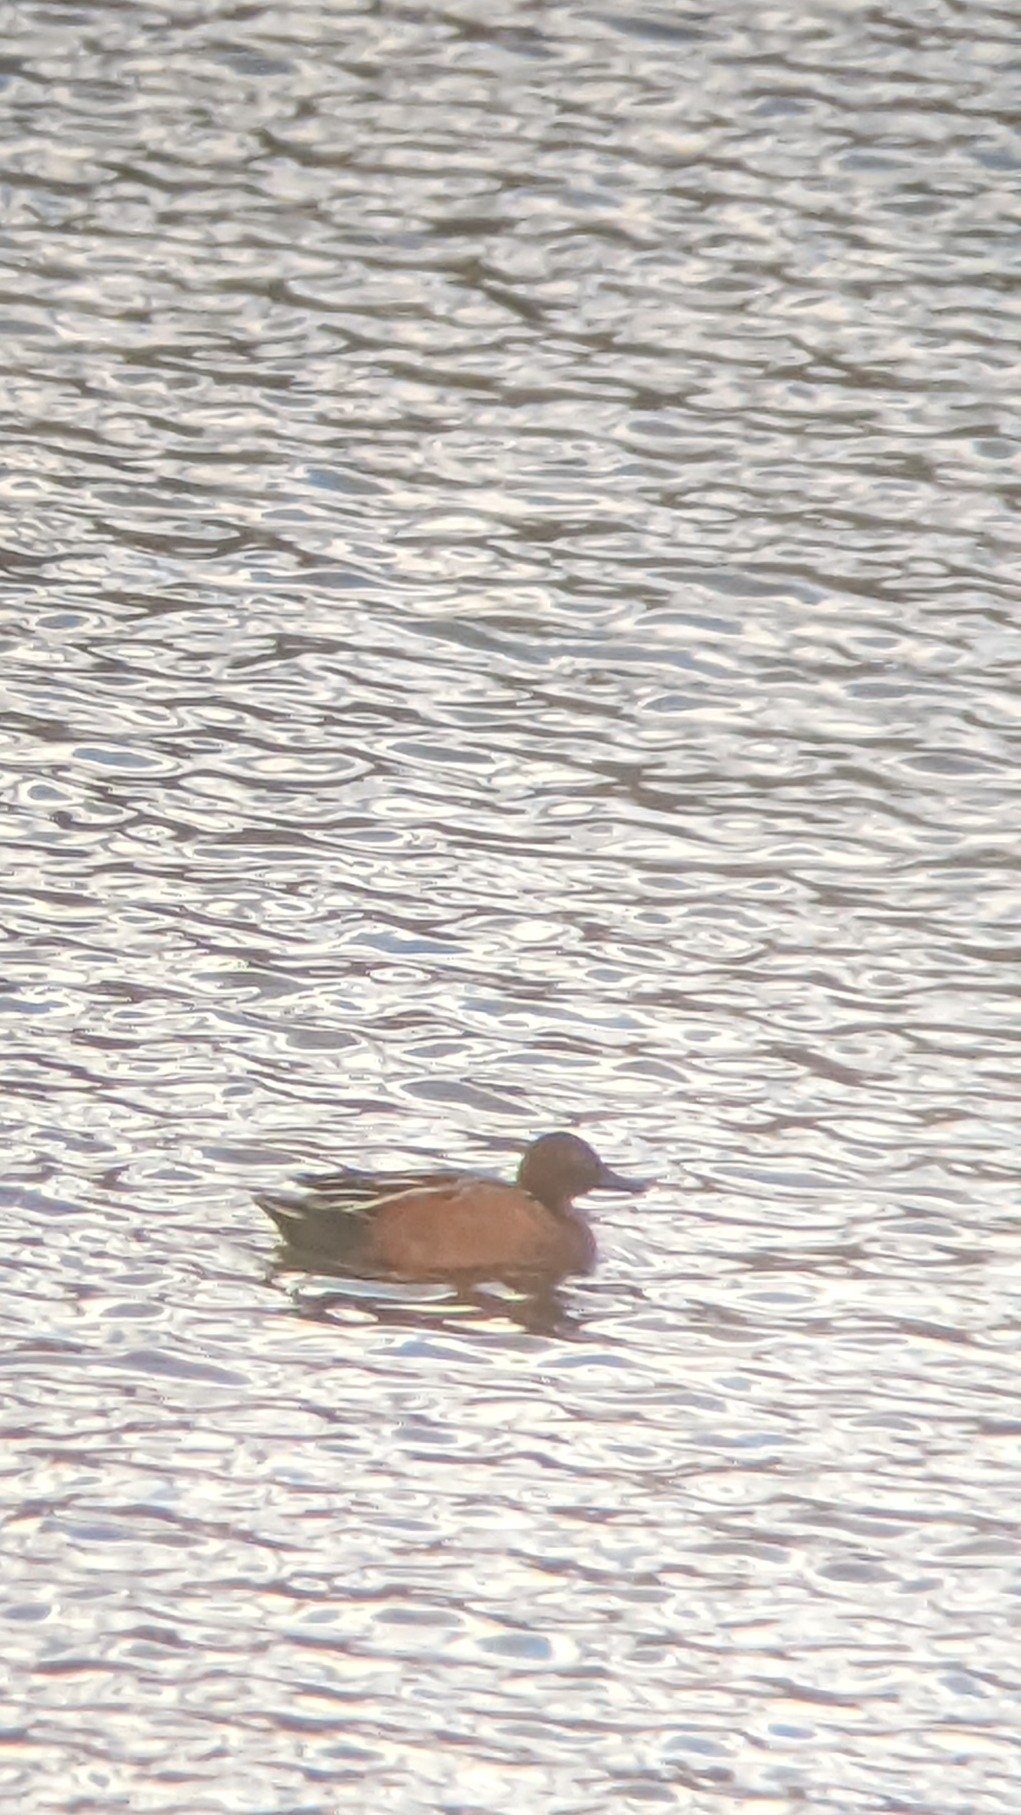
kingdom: Animalia
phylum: Chordata
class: Aves
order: Anseriformes
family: Anatidae
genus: Spatula
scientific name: Spatula cyanoptera
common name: Cinnamon teal
